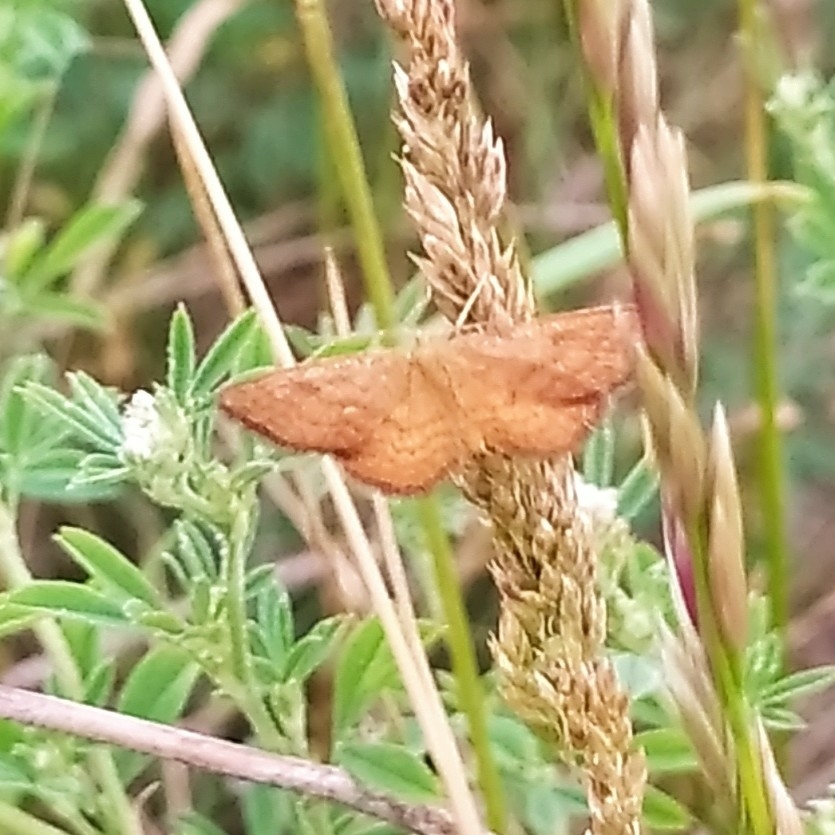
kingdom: Animalia
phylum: Arthropoda
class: Insecta
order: Lepidoptera
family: Geometridae
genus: Idaea
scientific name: Idaea serpentata
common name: Ochraceous wave
